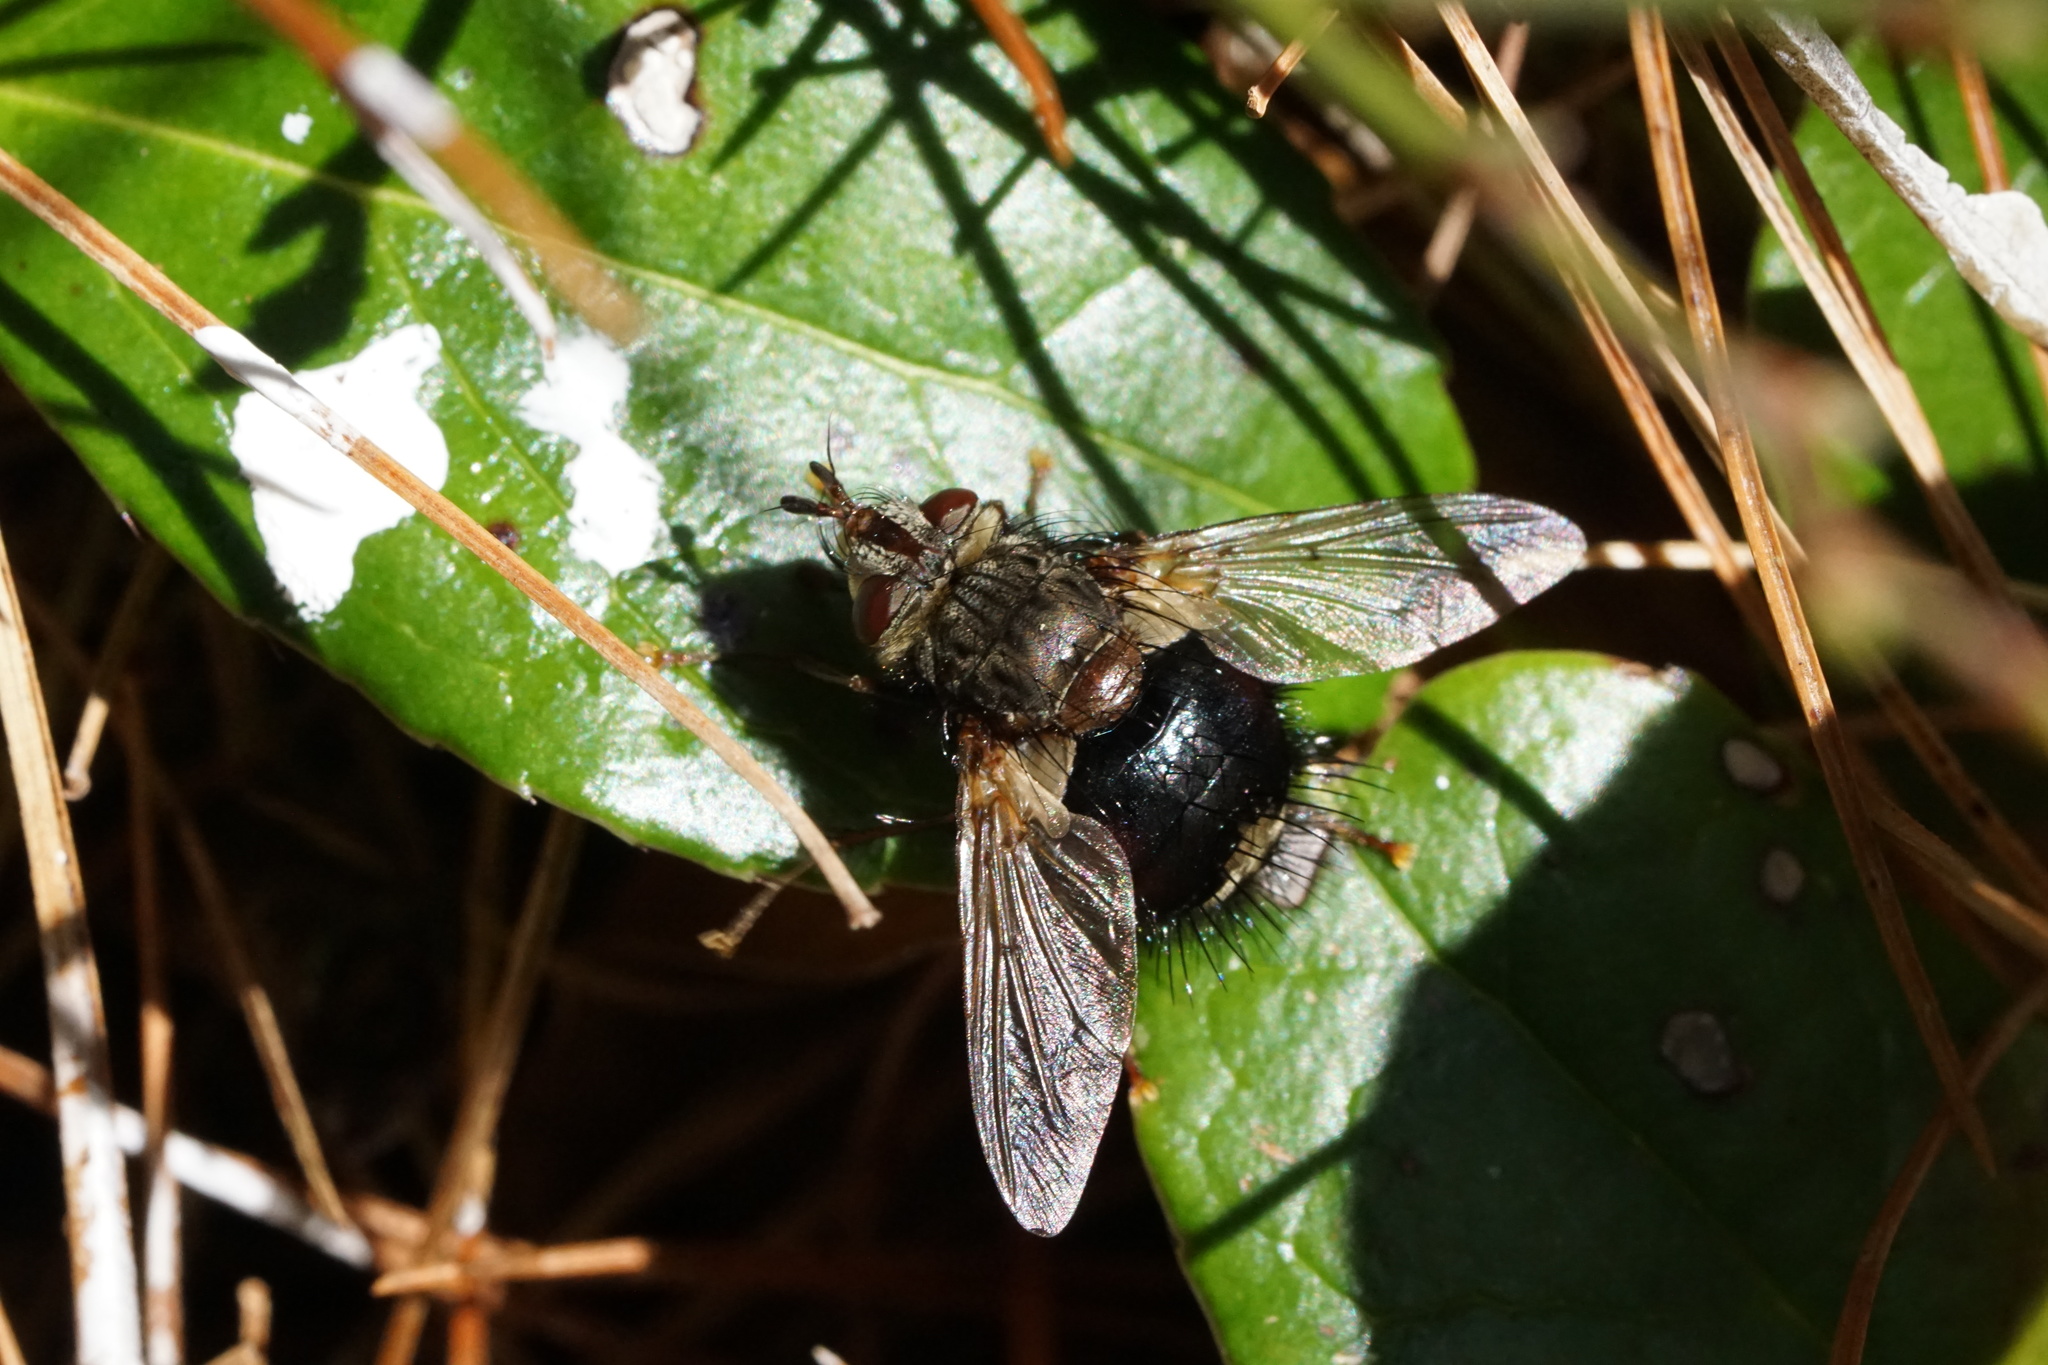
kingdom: Animalia
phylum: Arthropoda
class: Insecta
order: Diptera
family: Tachinidae
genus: Epalpus
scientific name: Epalpus signifer
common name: Early tachinid fly
